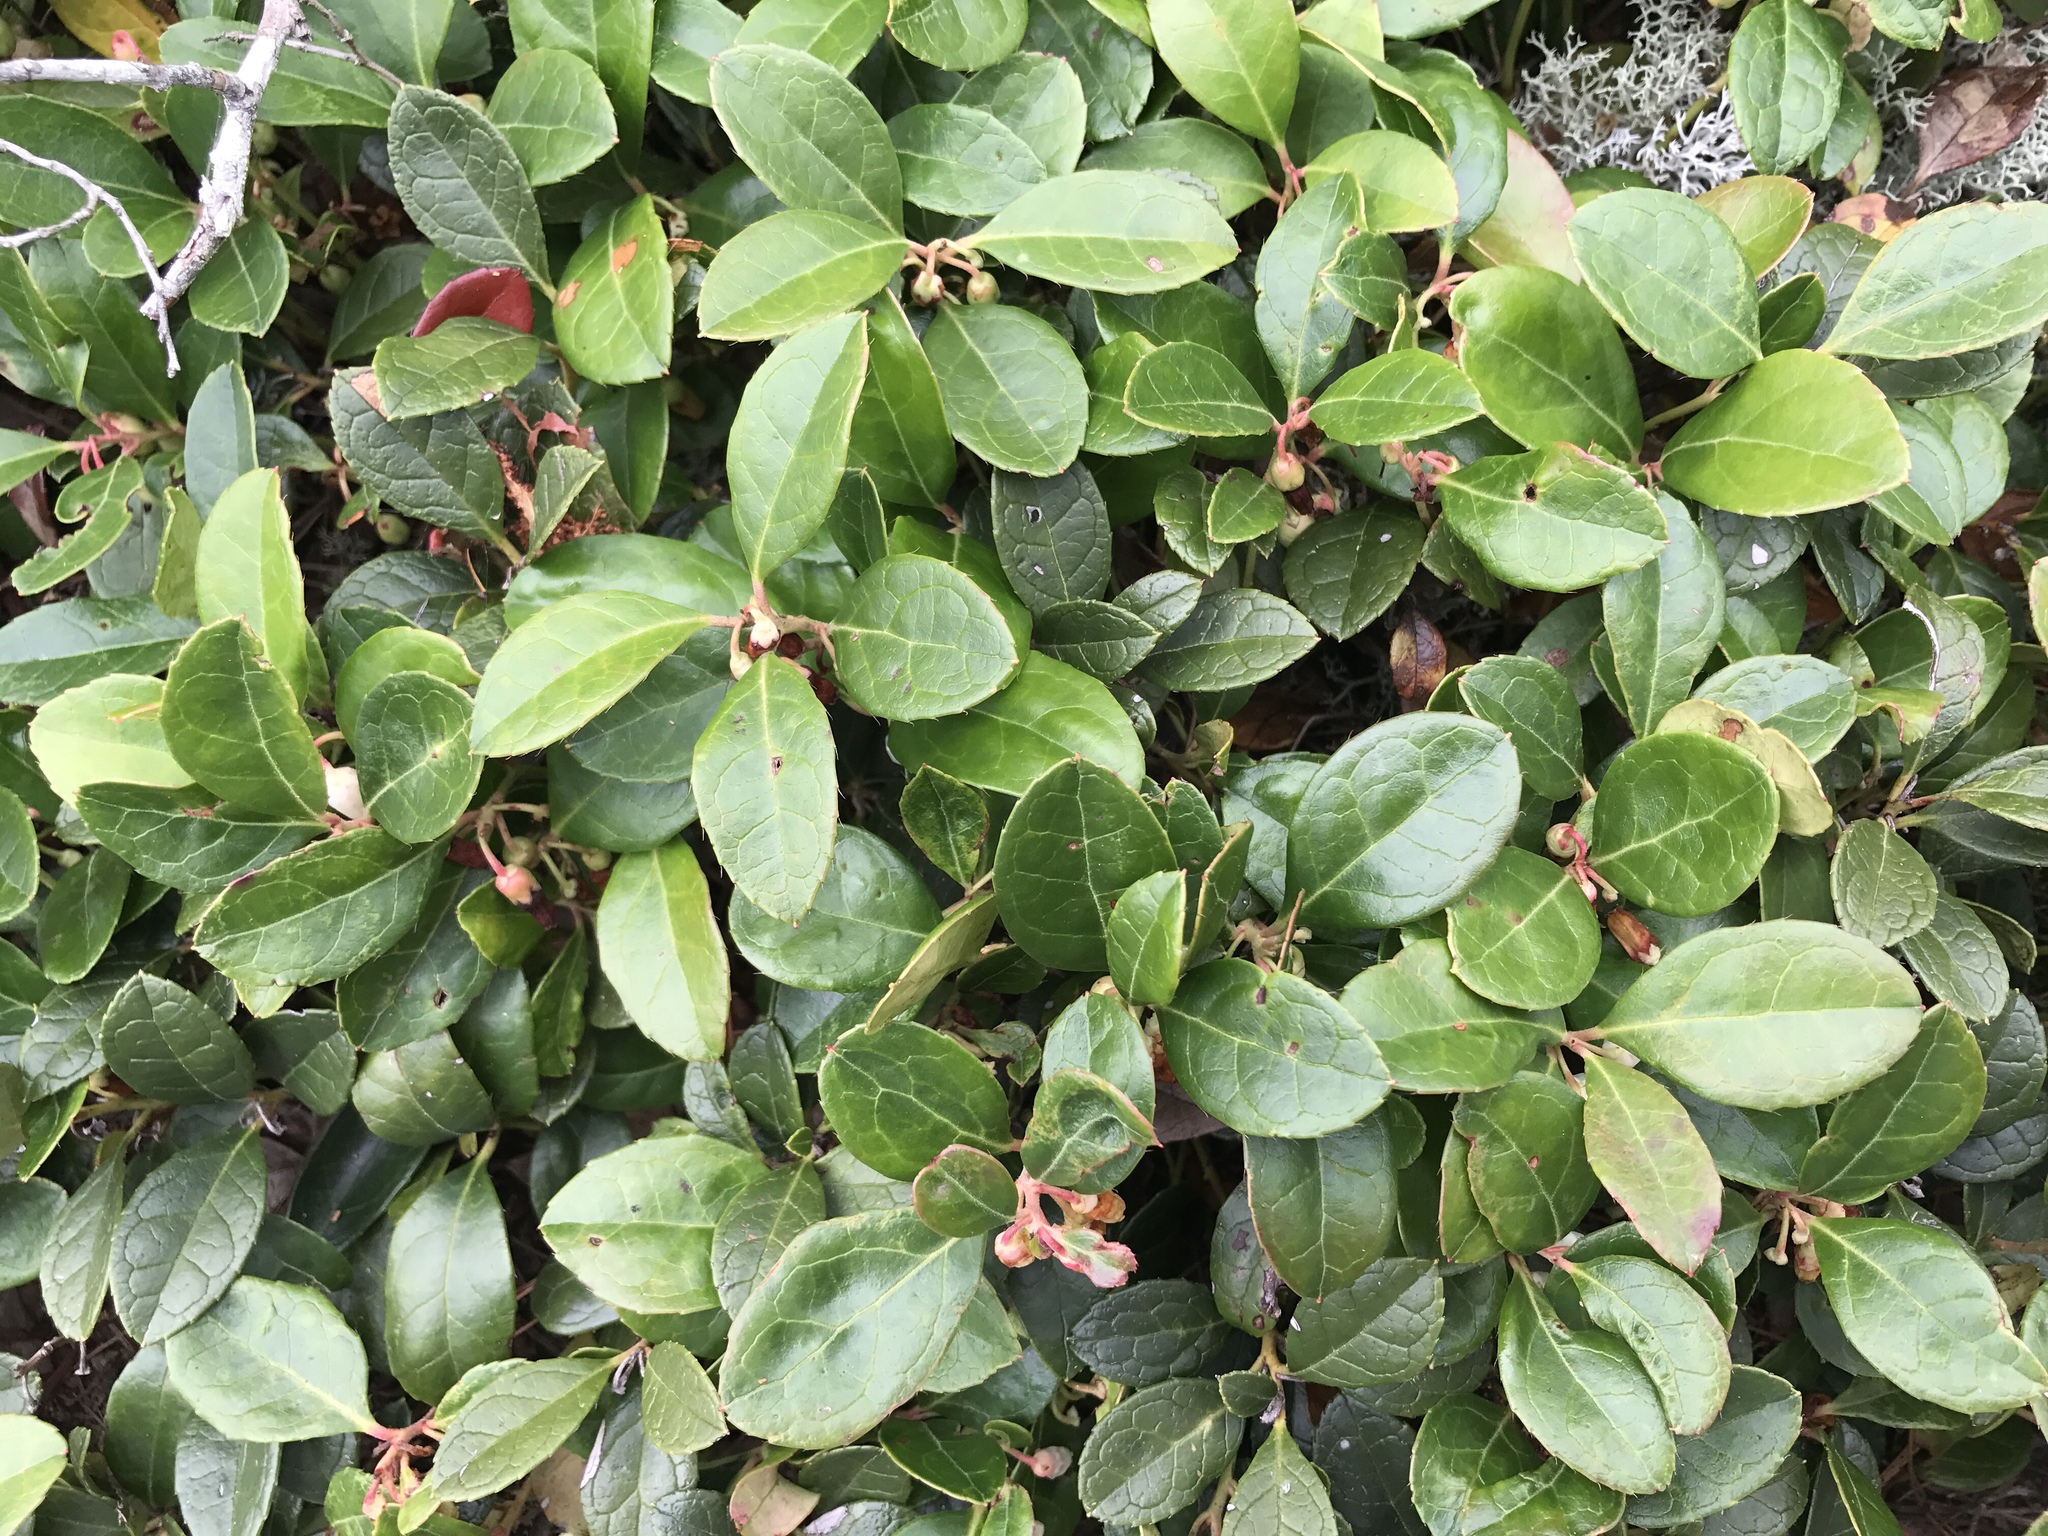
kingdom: Plantae
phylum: Tracheophyta
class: Magnoliopsida
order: Ericales
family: Ericaceae
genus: Gaultheria
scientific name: Gaultheria procumbens
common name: Checkerberry
